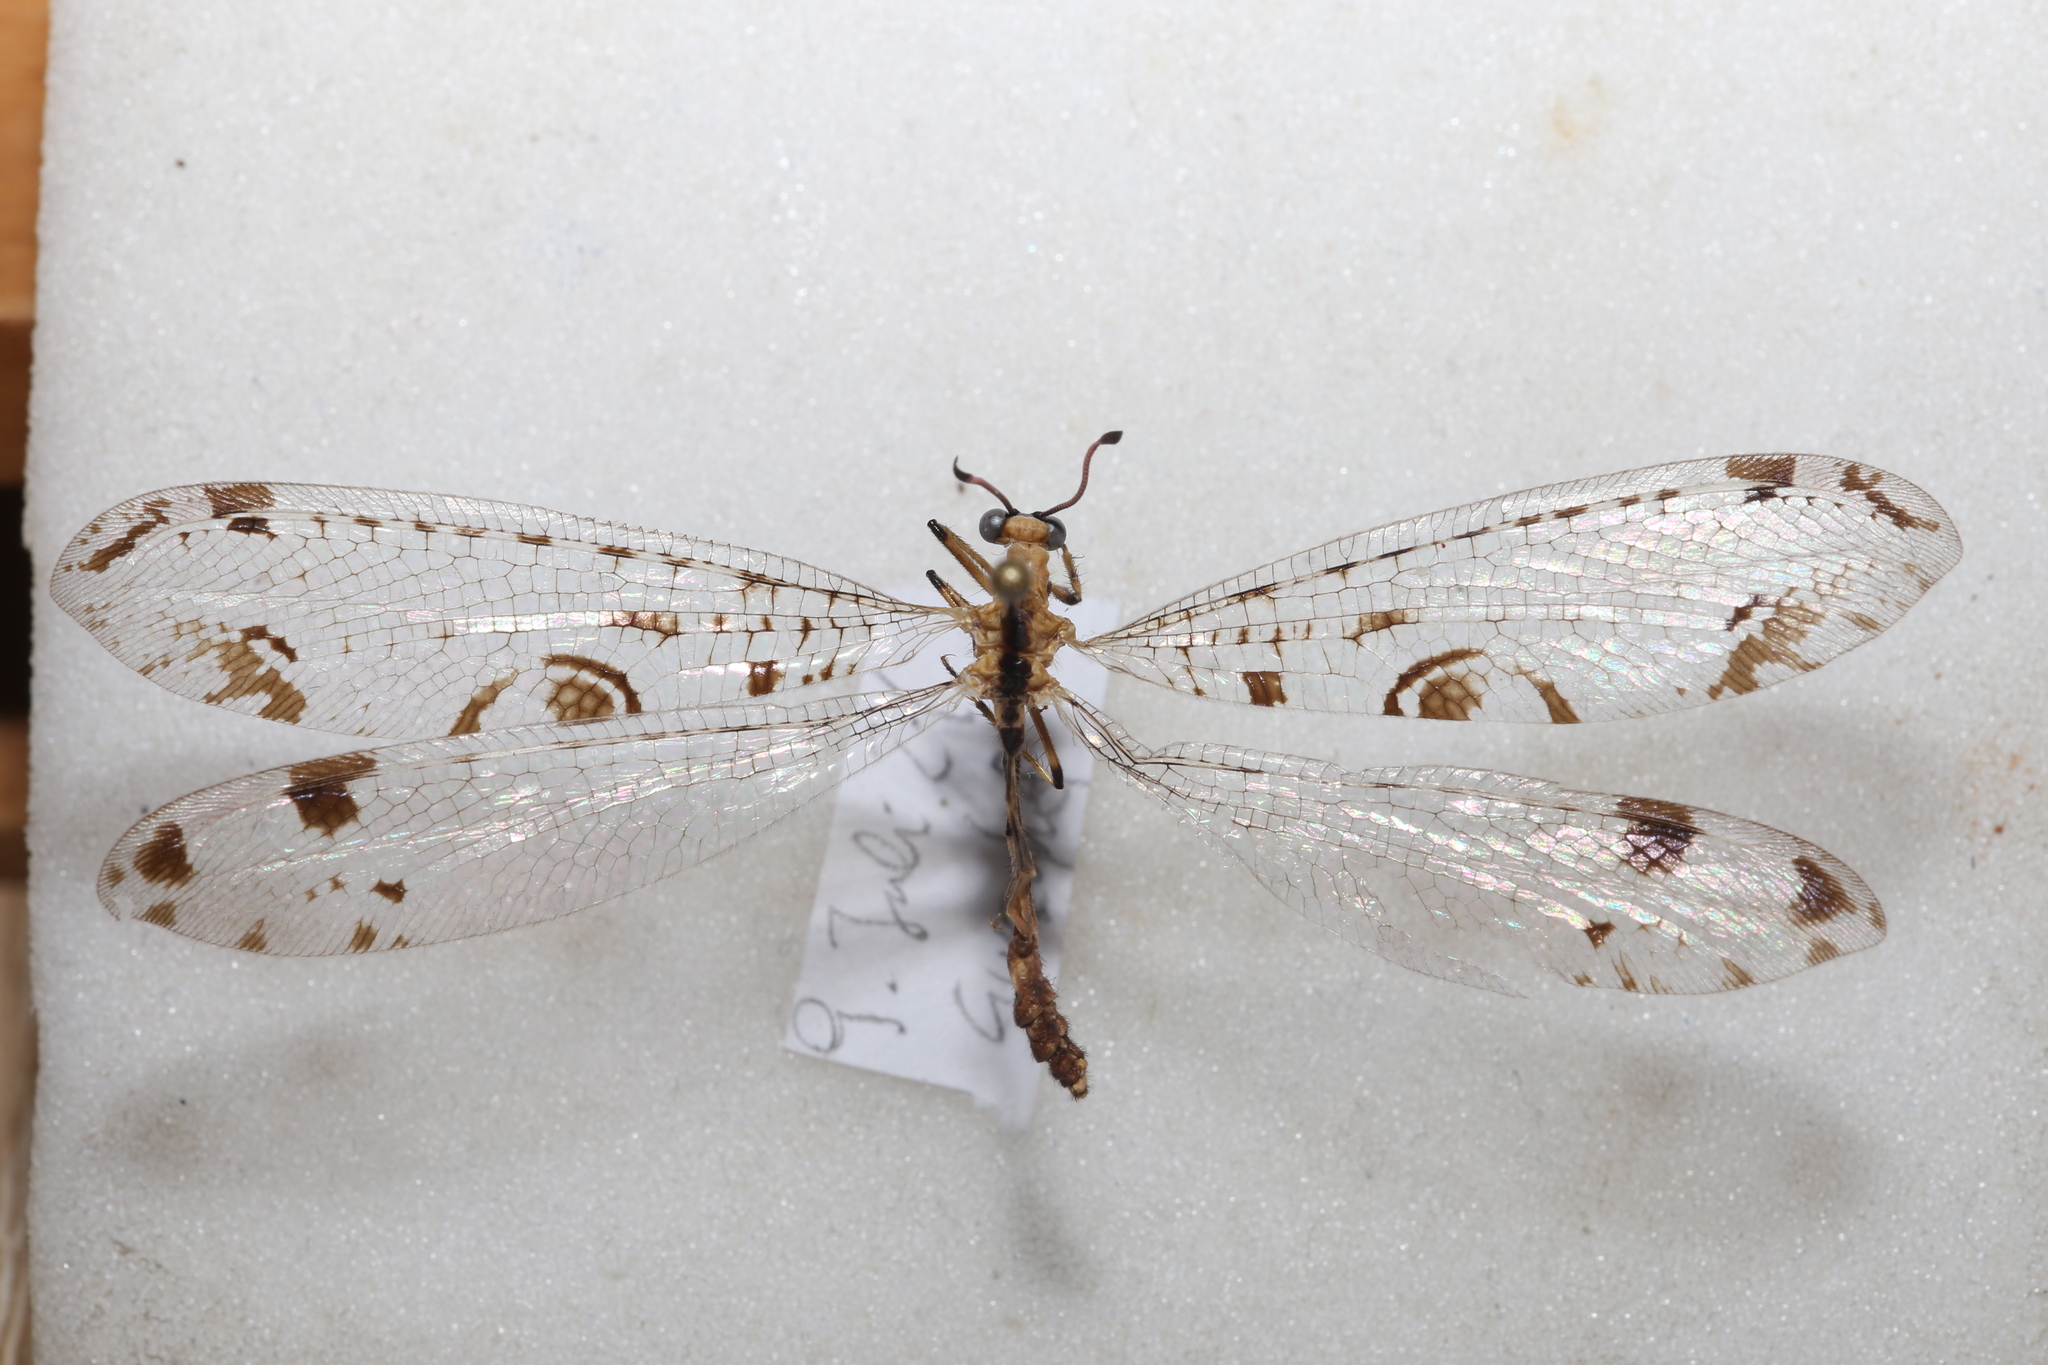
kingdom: Animalia
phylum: Arthropoda
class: Insecta
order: Neuroptera
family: Myrmeleontidae
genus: Dendroleon
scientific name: Dendroleon pantherinus
